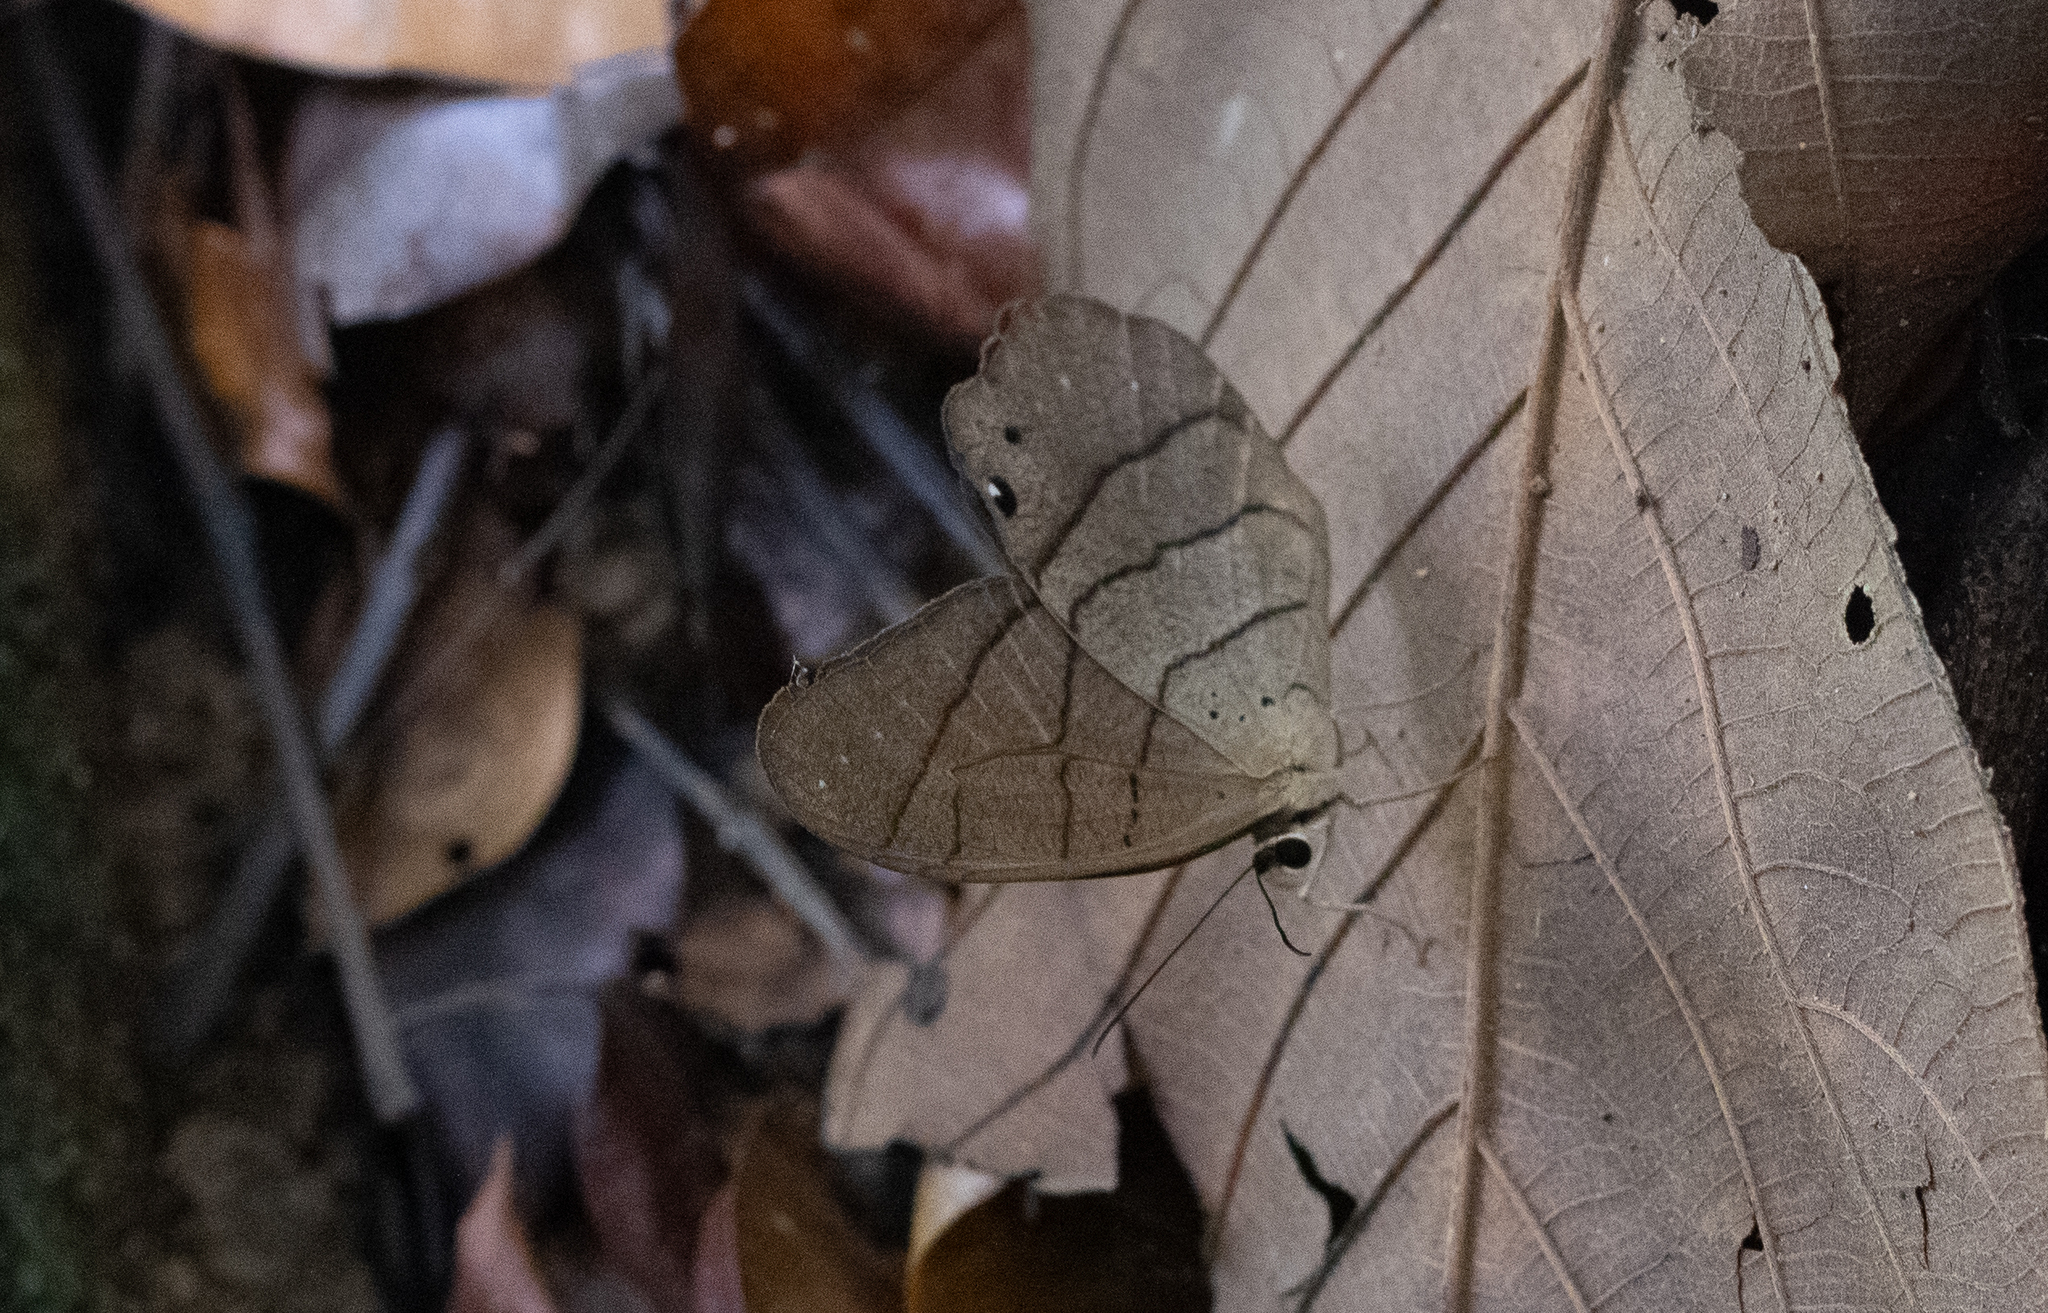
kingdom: Animalia
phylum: Arthropoda
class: Insecta
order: Lepidoptera
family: Nymphalidae
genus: Pierella
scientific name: Pierella luna
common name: Moon satyr
